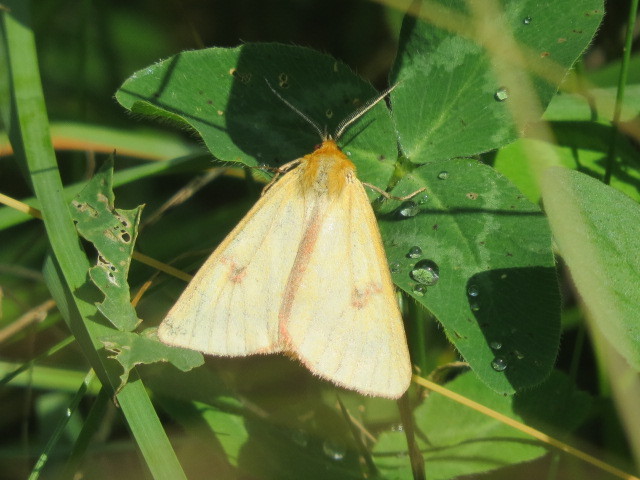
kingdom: Animalia
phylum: Arthropoda
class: Insecta
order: Lepidoptera
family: Erebidae
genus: Diacrisia
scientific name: Diacrisia sannio
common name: Clouded buff
